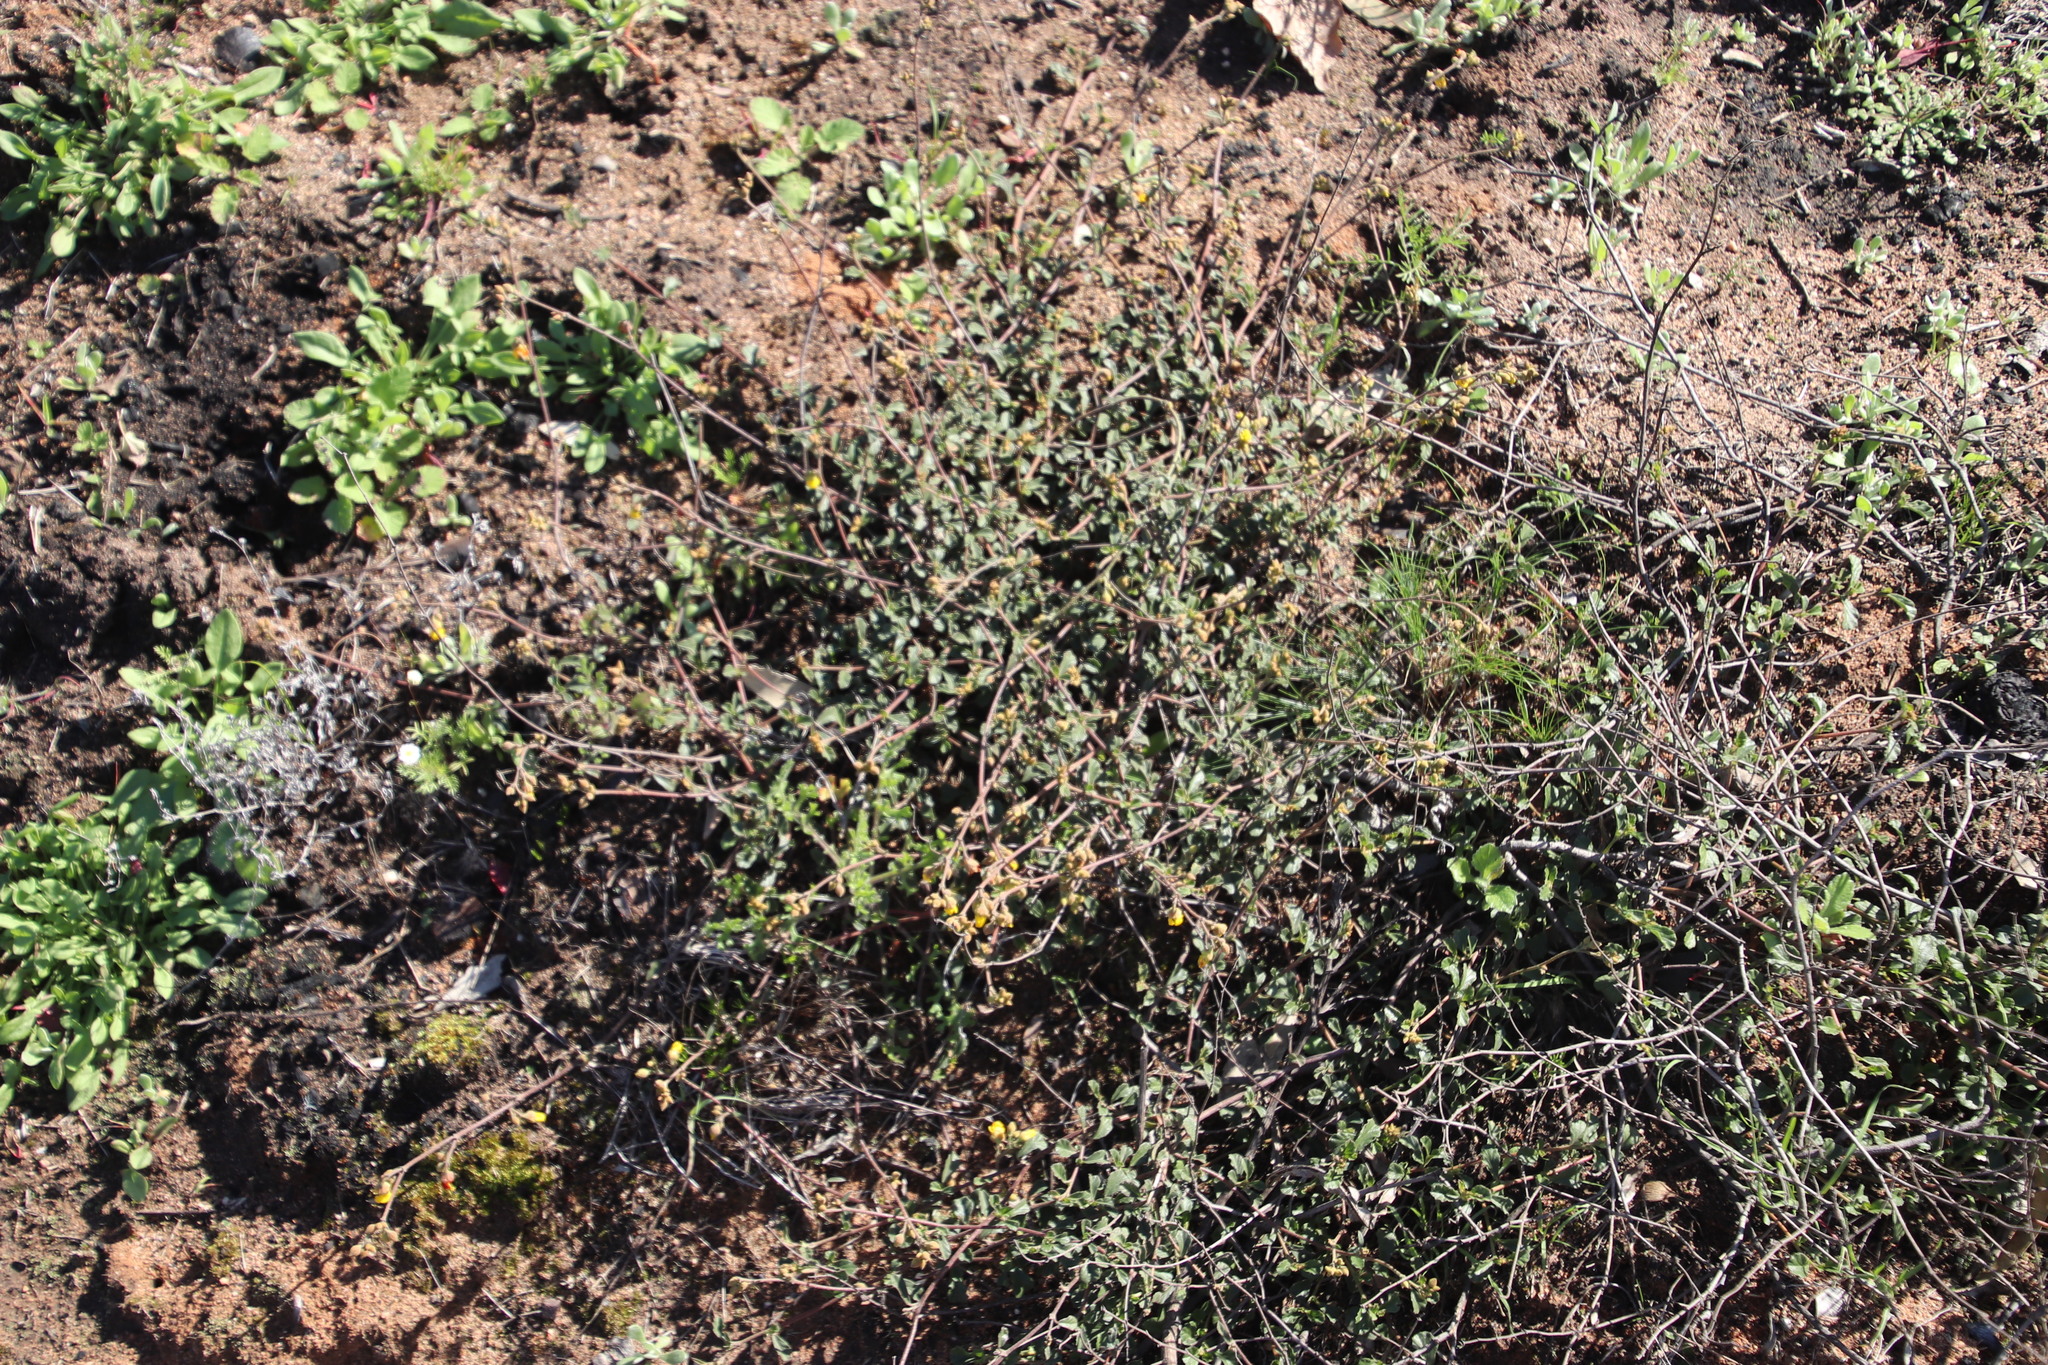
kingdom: Plantae
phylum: Tracheophyta
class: Magnoliopsida
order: Malvales
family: Malvaceae
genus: Hermannia
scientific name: Hermannia multiflora
